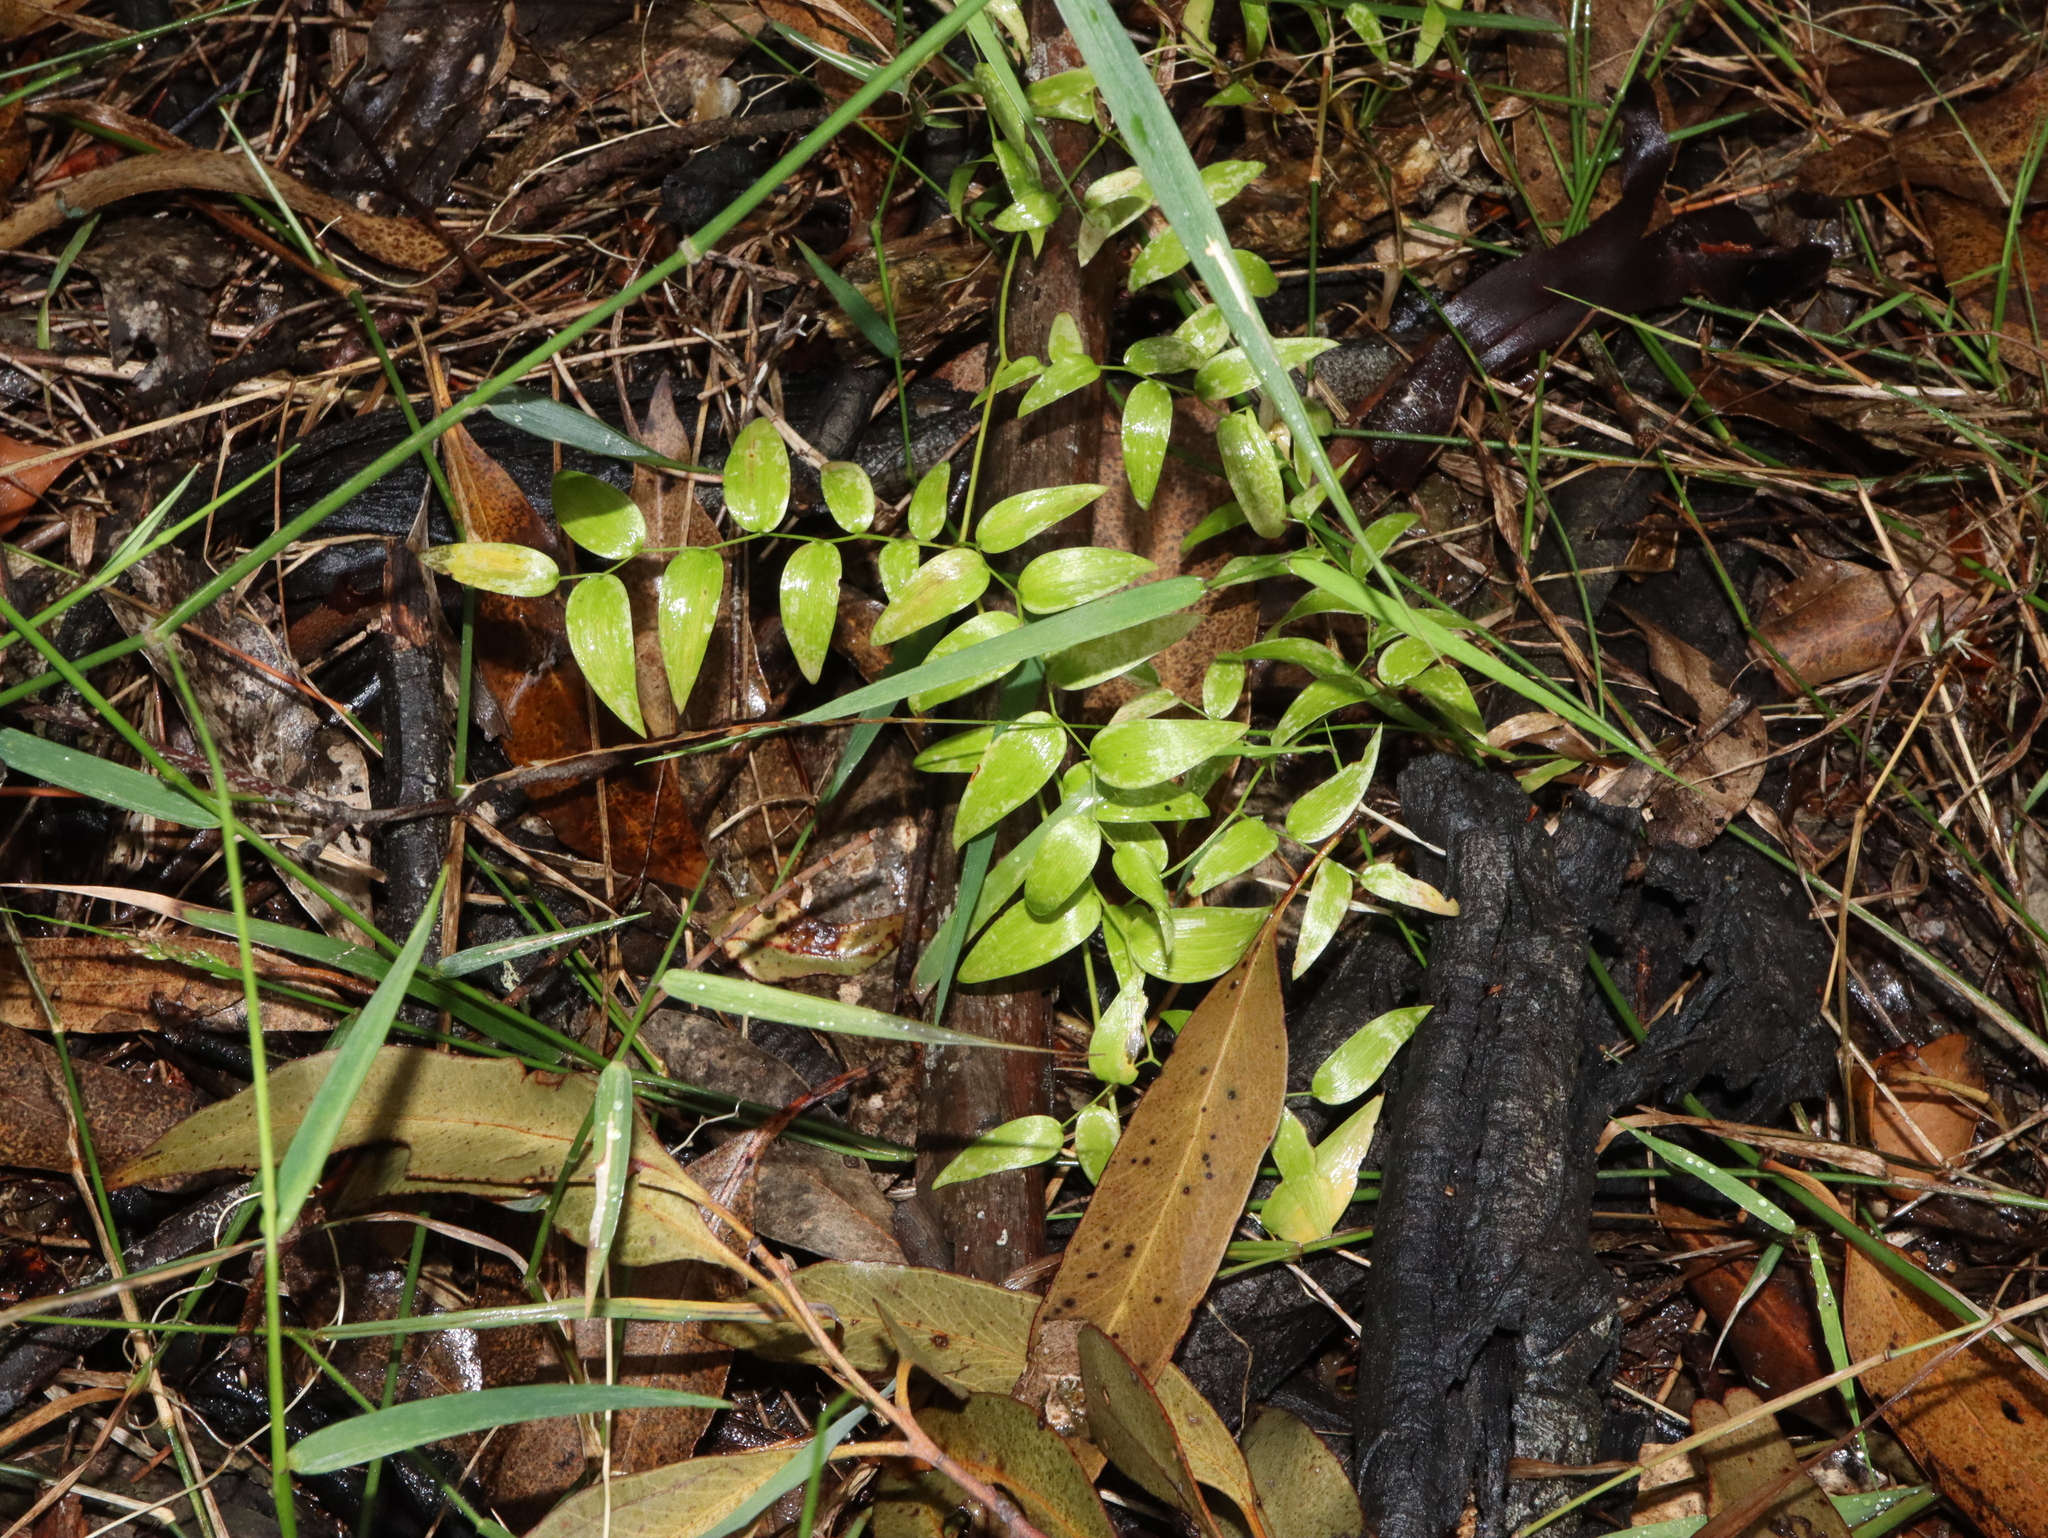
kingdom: Plantae
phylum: Tracheophyta
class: Liliopsida
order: Asparagales
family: Asparagaceae
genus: Asparagus
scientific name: Asparagus asparagoides
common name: African asparagus fern
